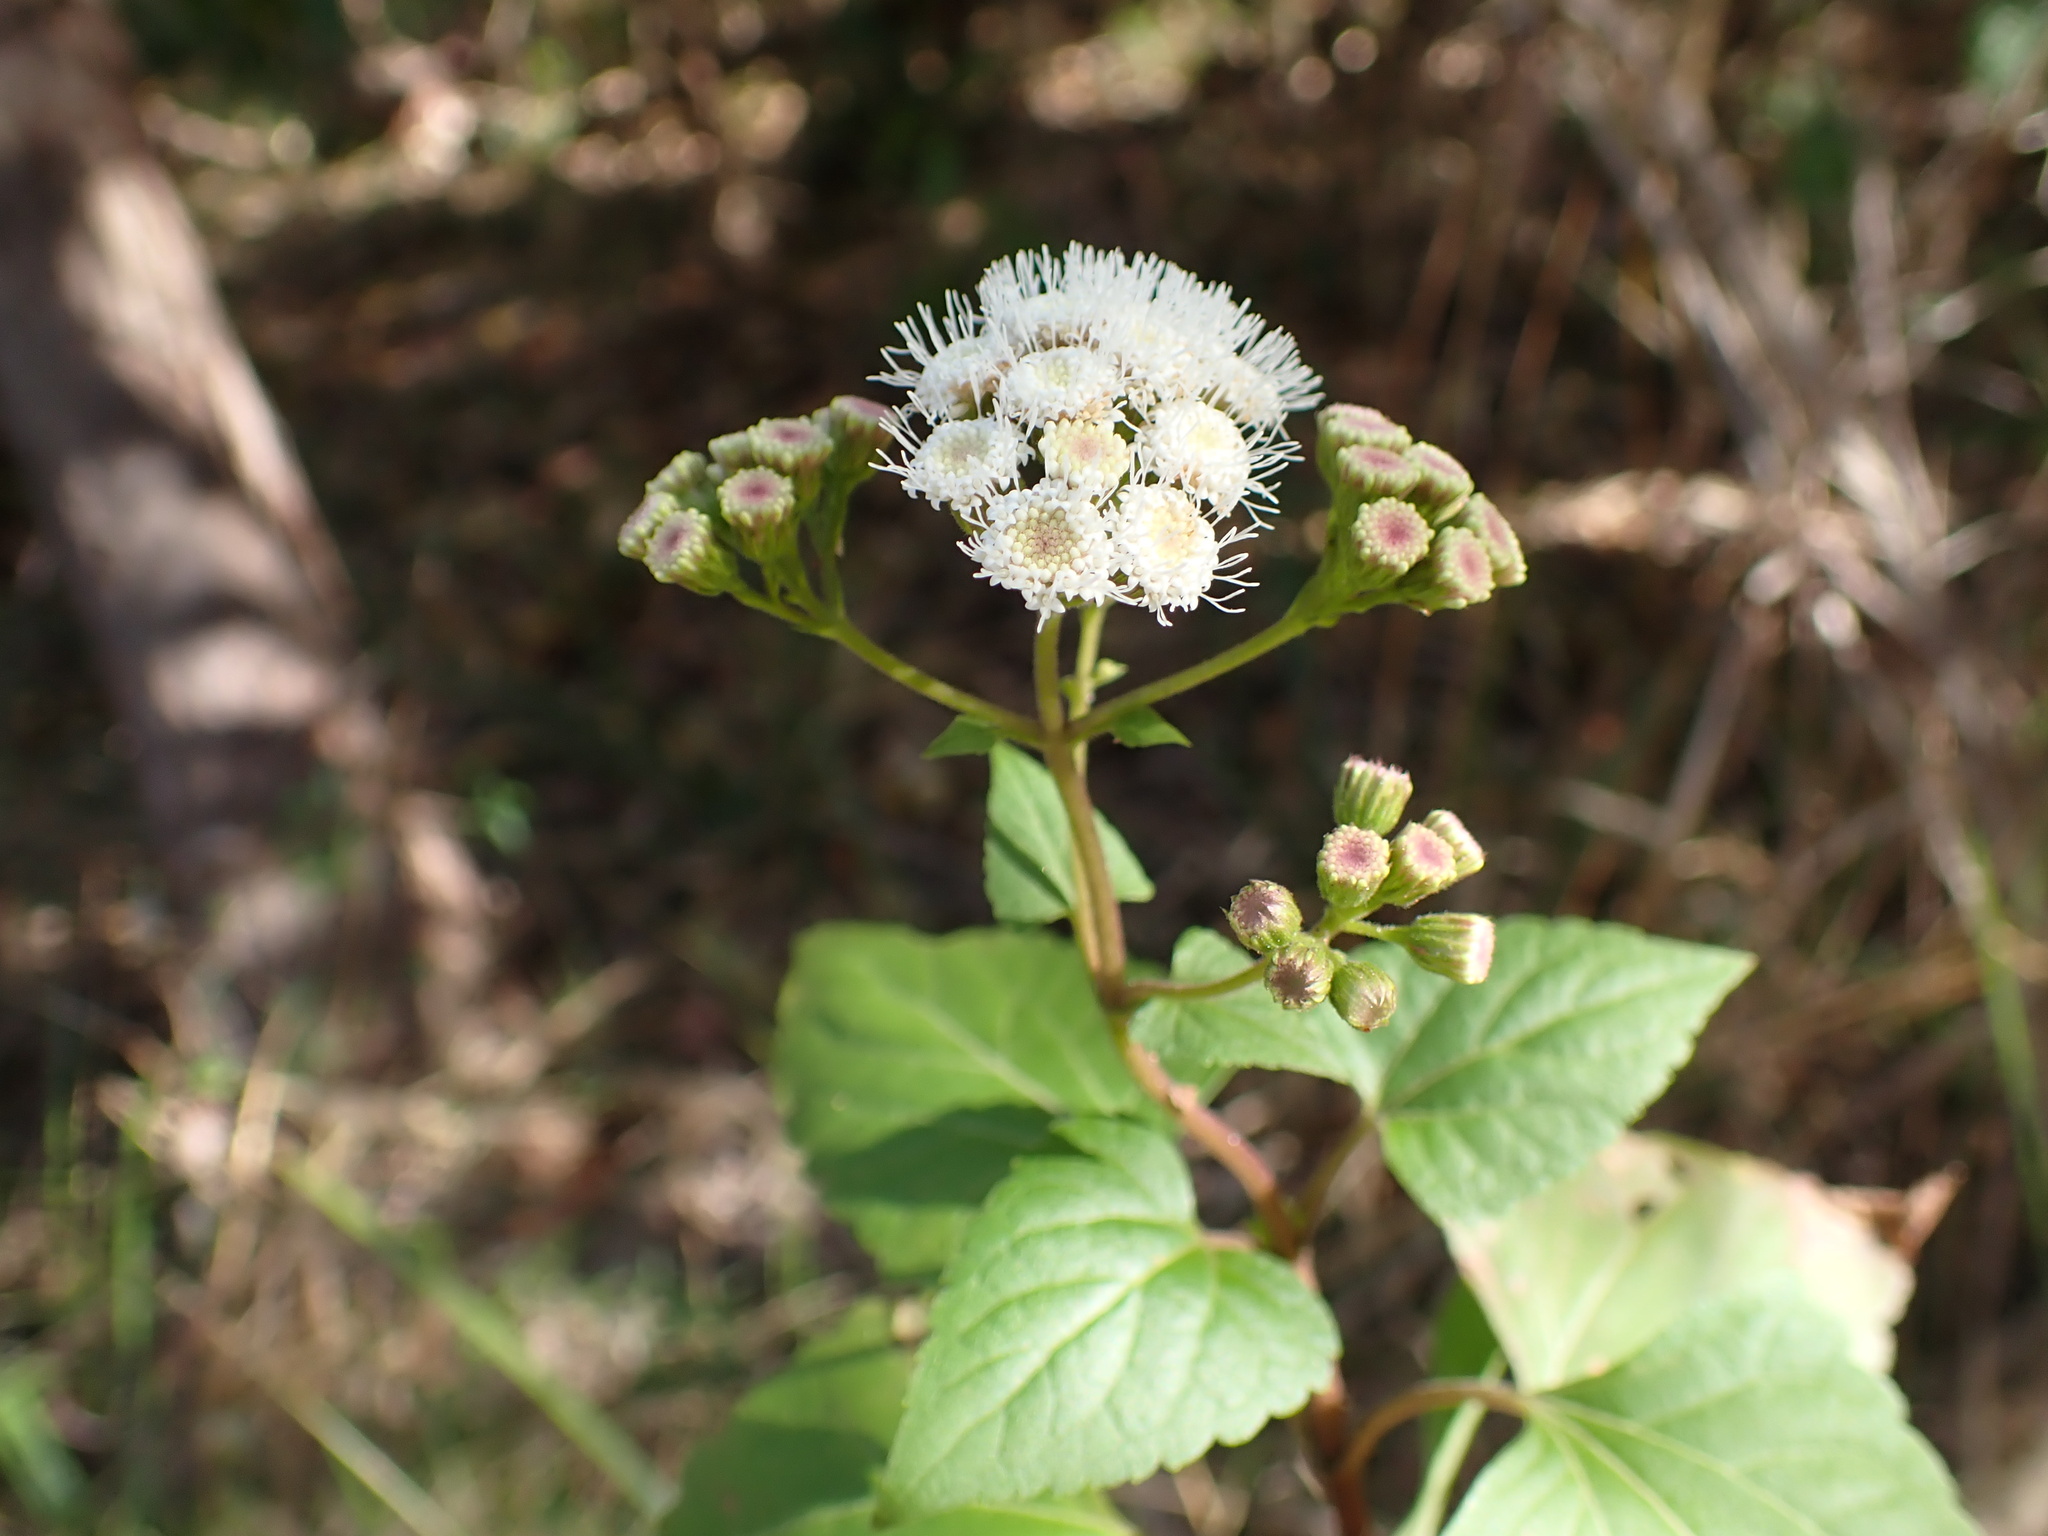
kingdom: Plantae
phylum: Tracheophyta
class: Magnoliopsida
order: Asterales
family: Asteraceae
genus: Ageratina
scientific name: Ageratina adenophora
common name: Sticky snakeroot
